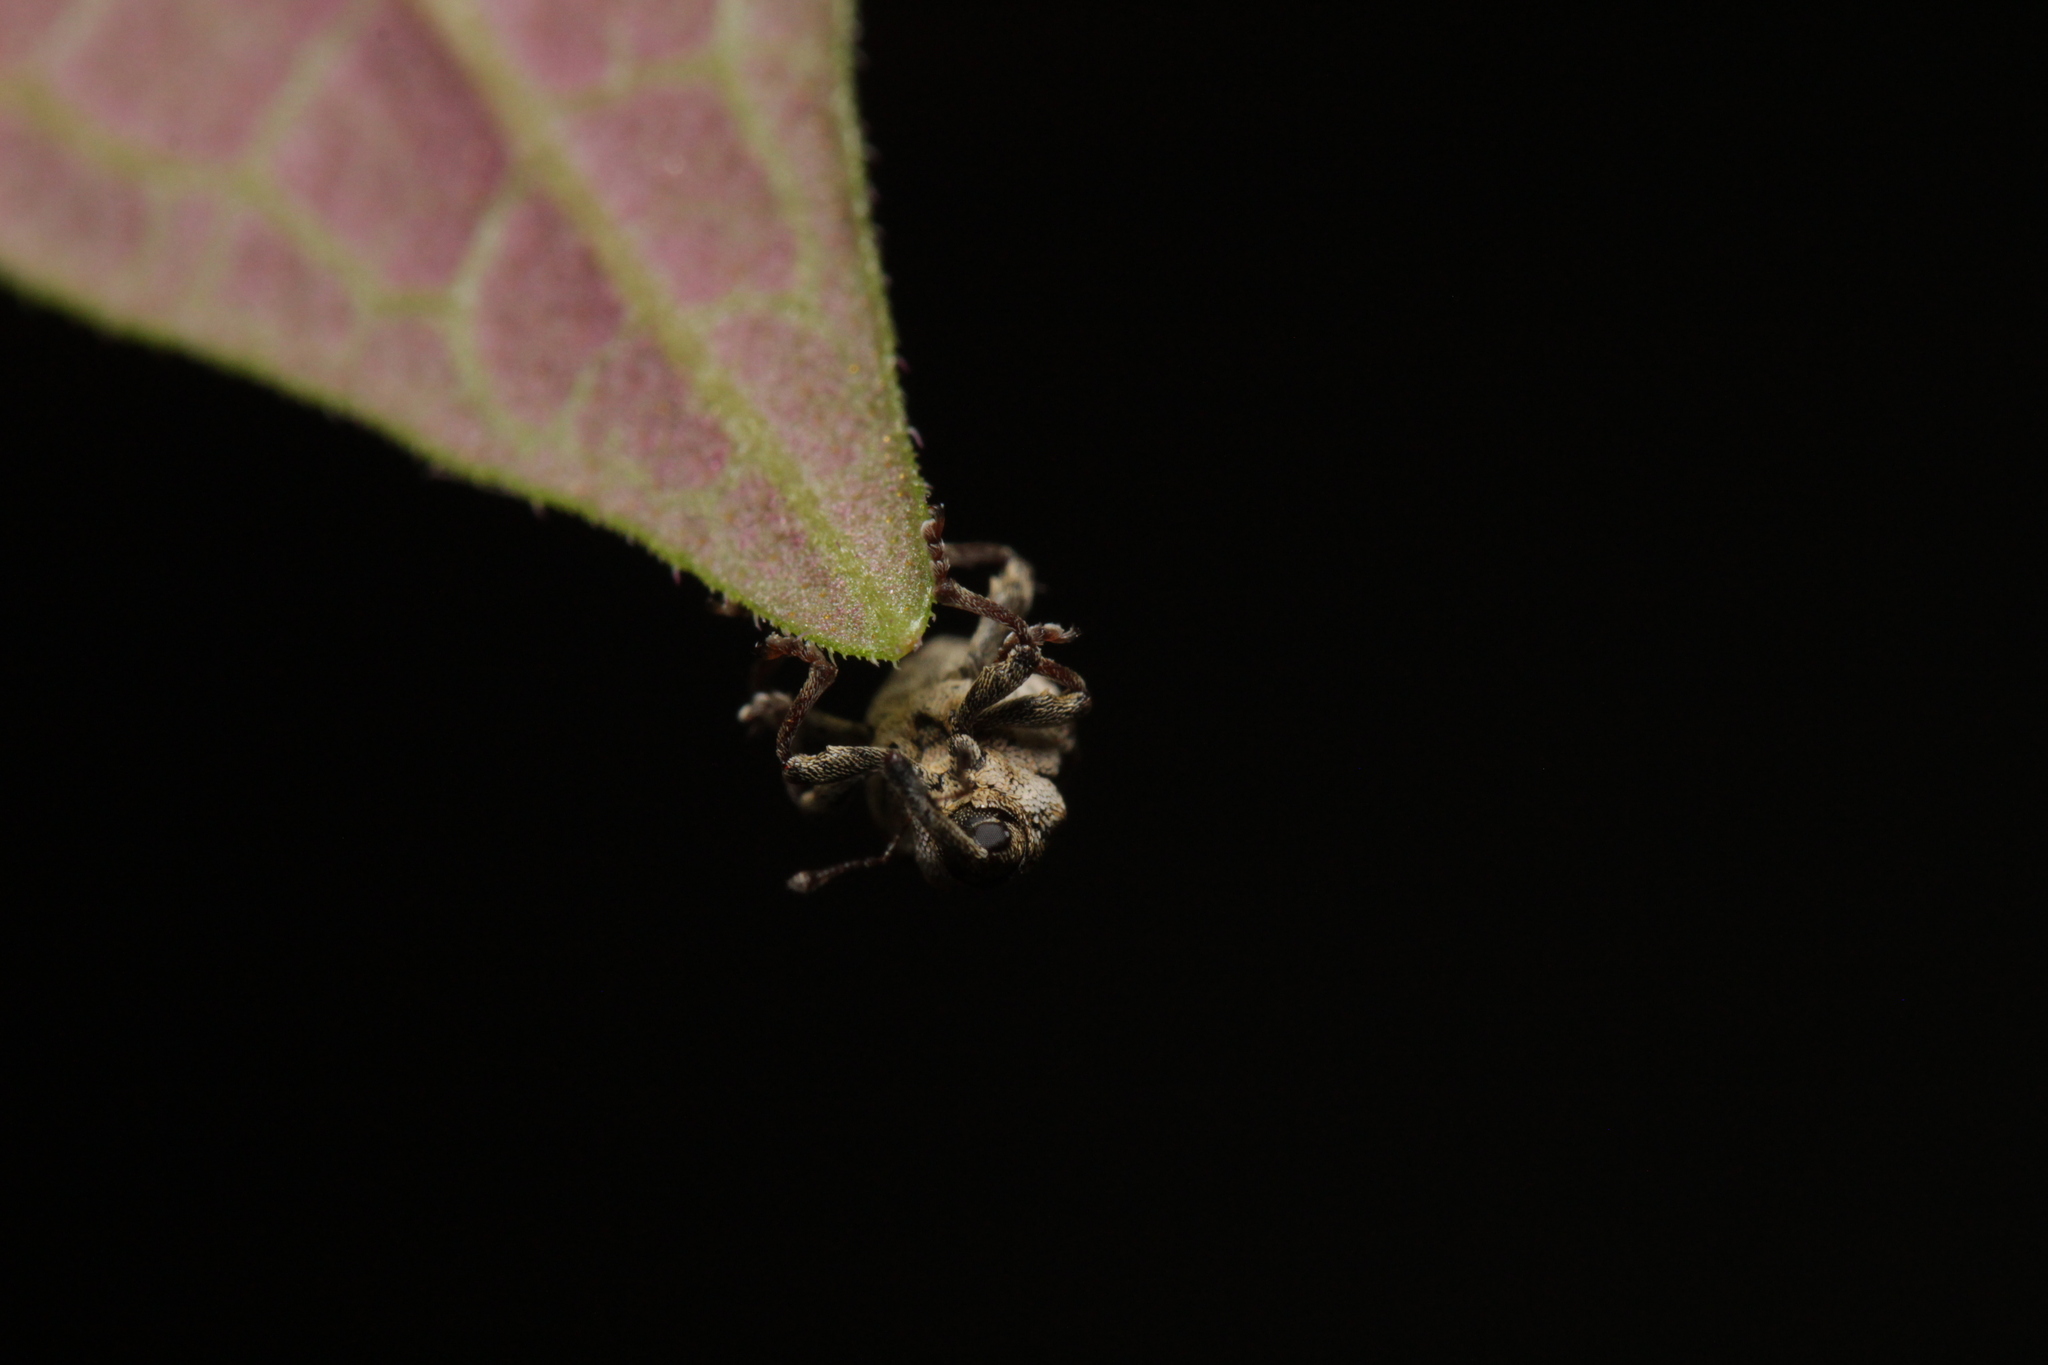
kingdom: Animalia
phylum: Arthropoda
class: Insecta
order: Coleoptera
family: Curculionidae
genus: Nedyus
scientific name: Nedyus quadrimaculatus
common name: Small nettle weevil
